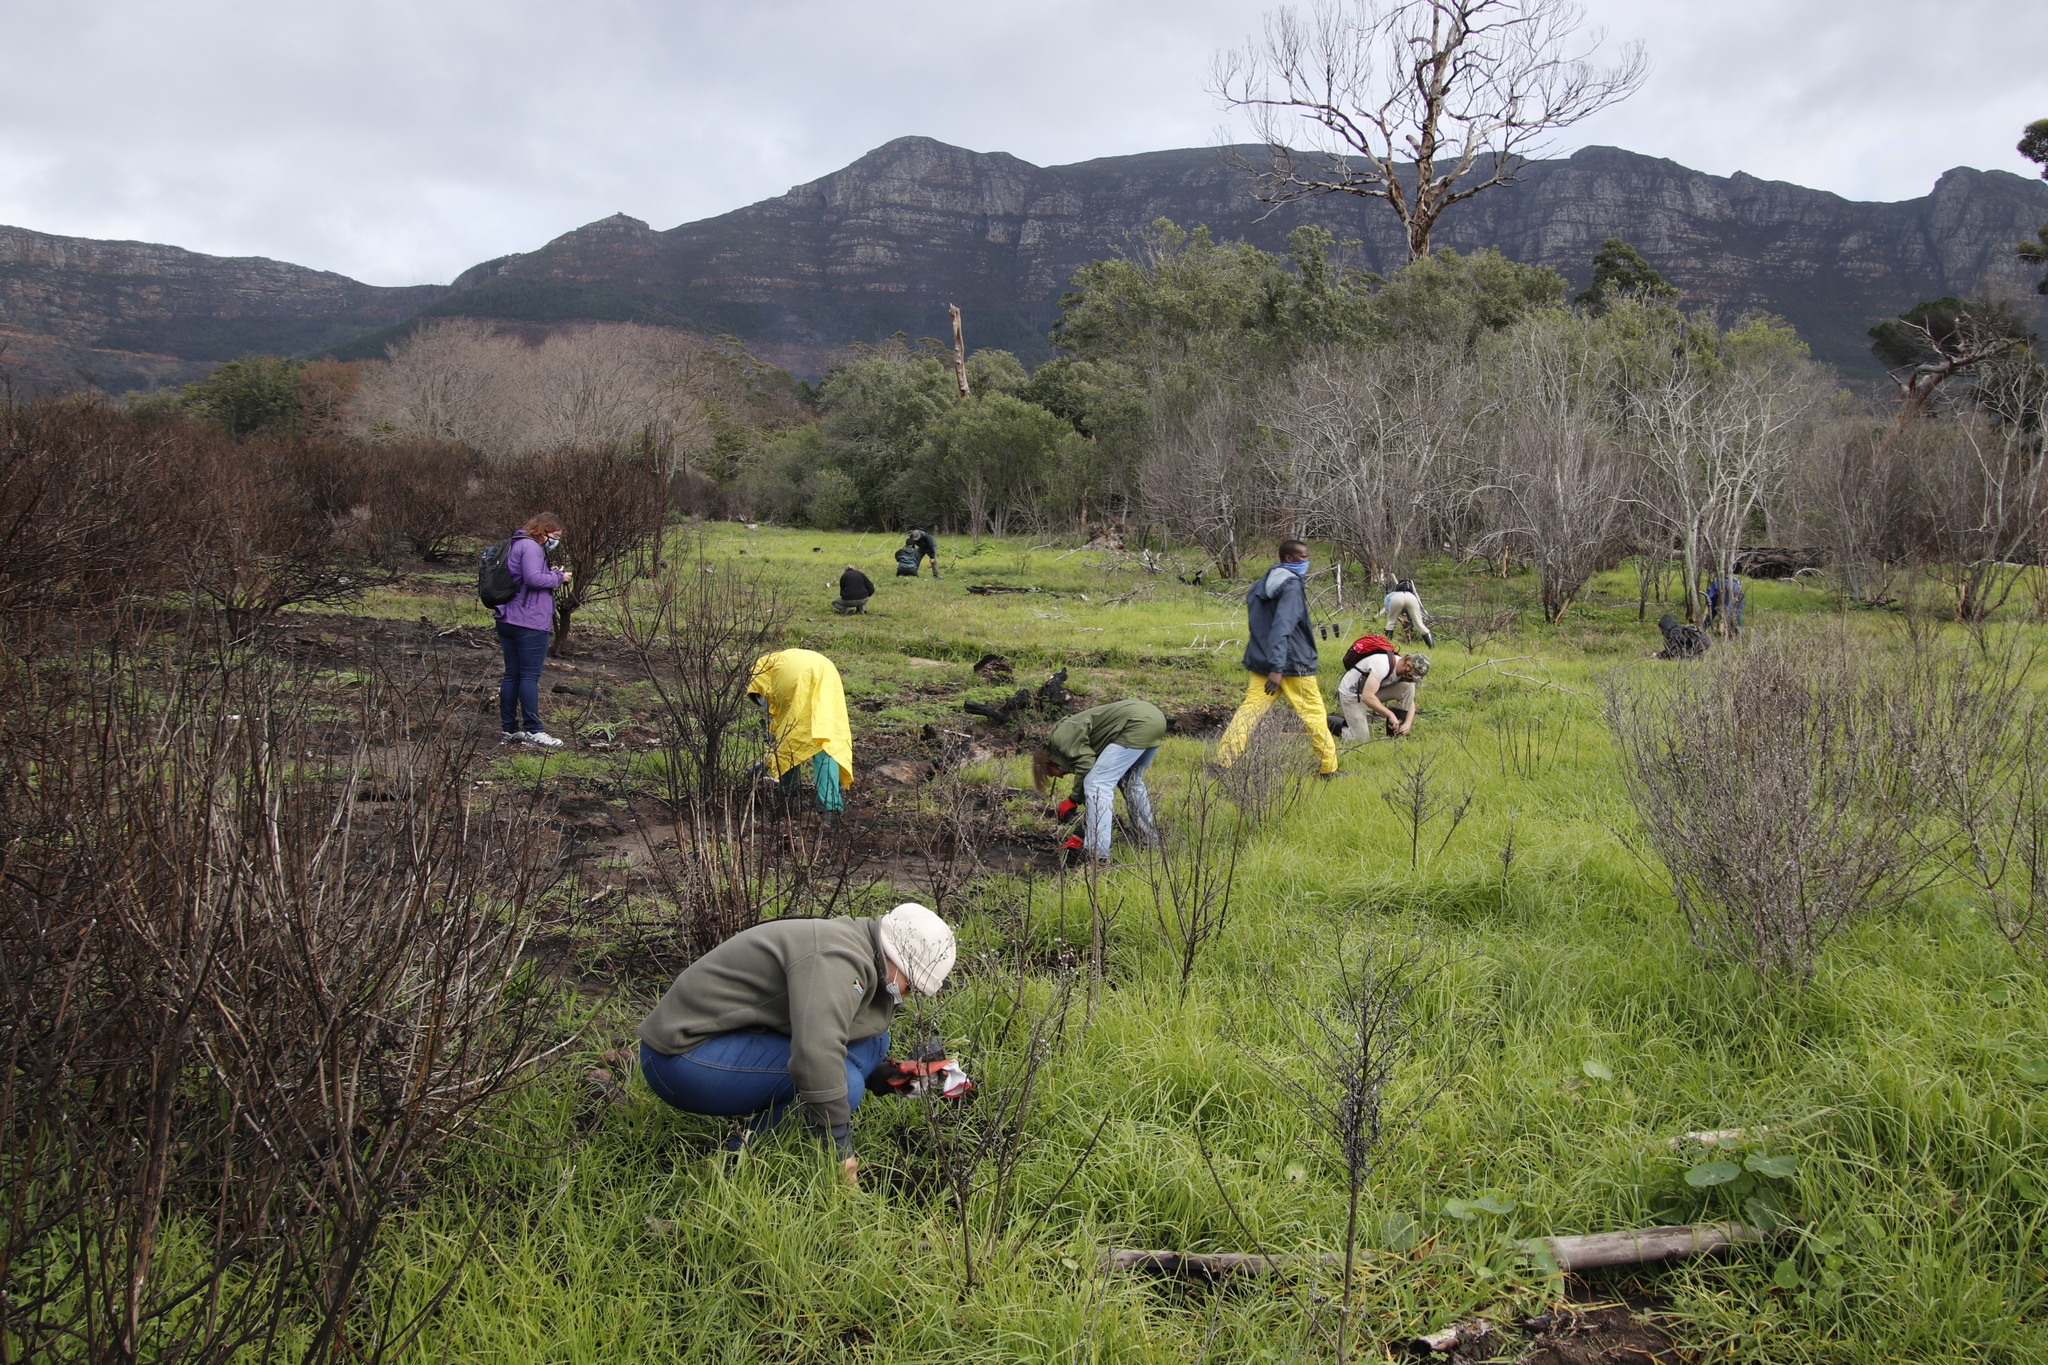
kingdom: Plantae
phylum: Tracheophyta
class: Liliopsida
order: Poales
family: Poaceae
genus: Cenchrus
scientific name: Cenchrus clandestinus
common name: Kikuyugrass
